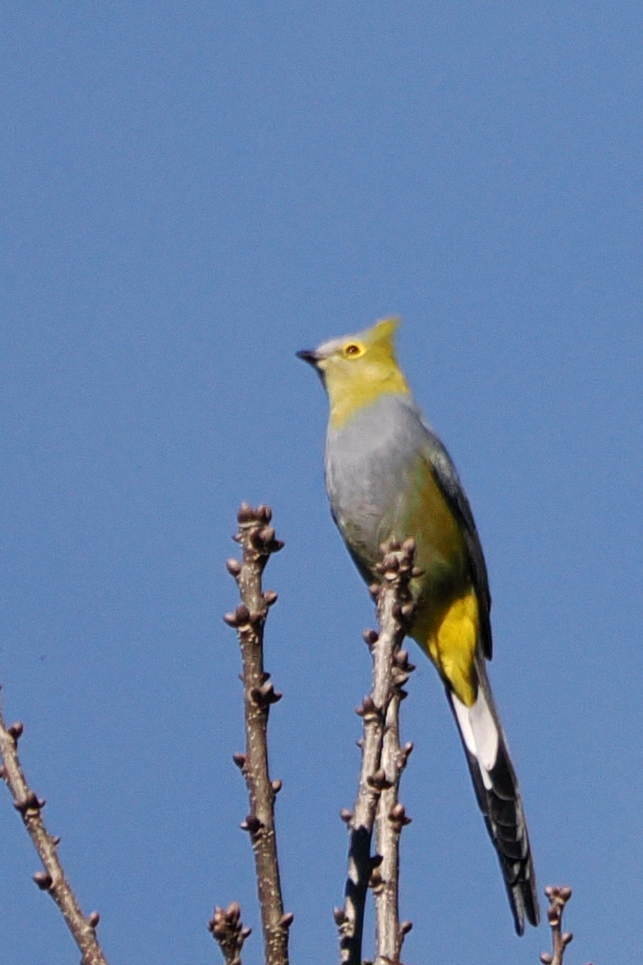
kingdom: Animalia
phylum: Chordata
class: Aves
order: Passeriformes
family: Ptilogonatidae
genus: Ptilogonys
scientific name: Ptilogonys caudatus
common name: Long-tailed silky-flycatcher
